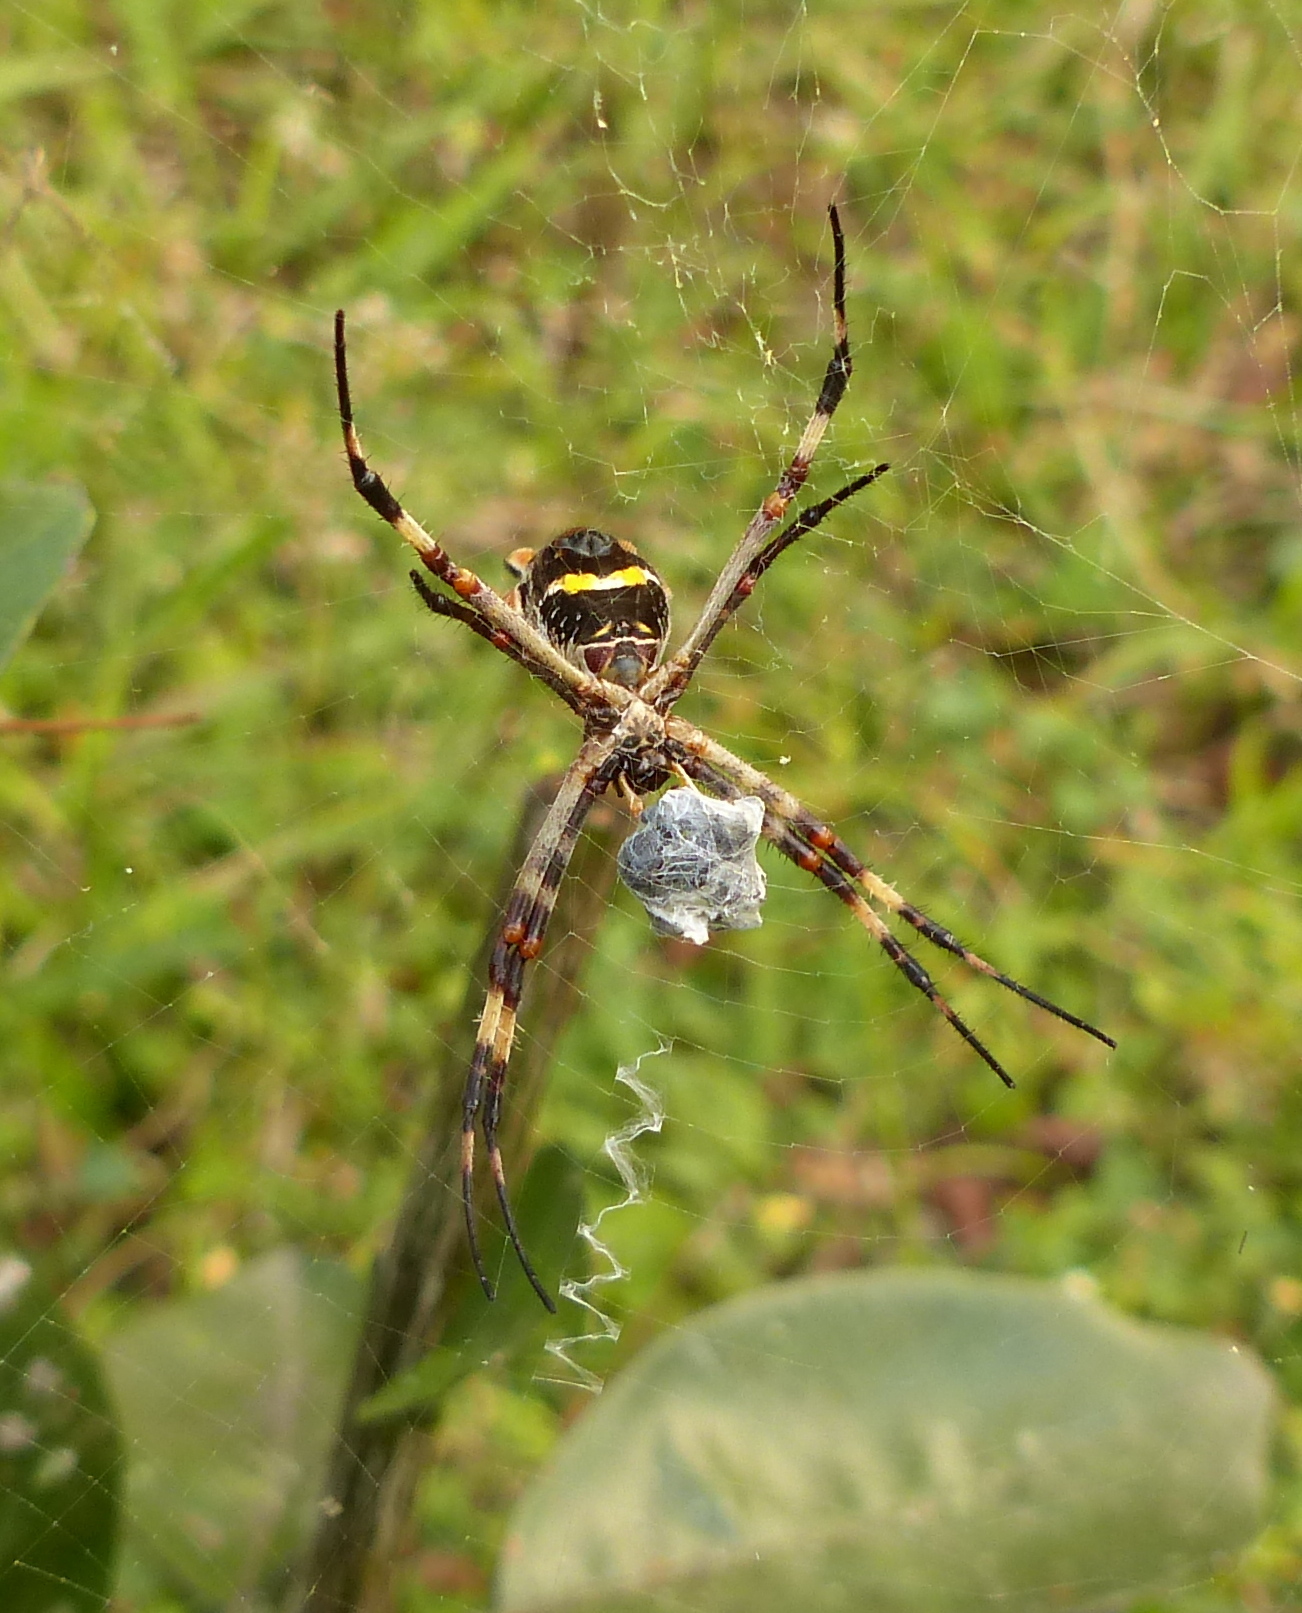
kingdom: Animalia
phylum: Arthropoda
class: Arachnida
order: Araneae
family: Araneidae
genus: Argiope
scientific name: Argiope argentata
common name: Orb weavers
